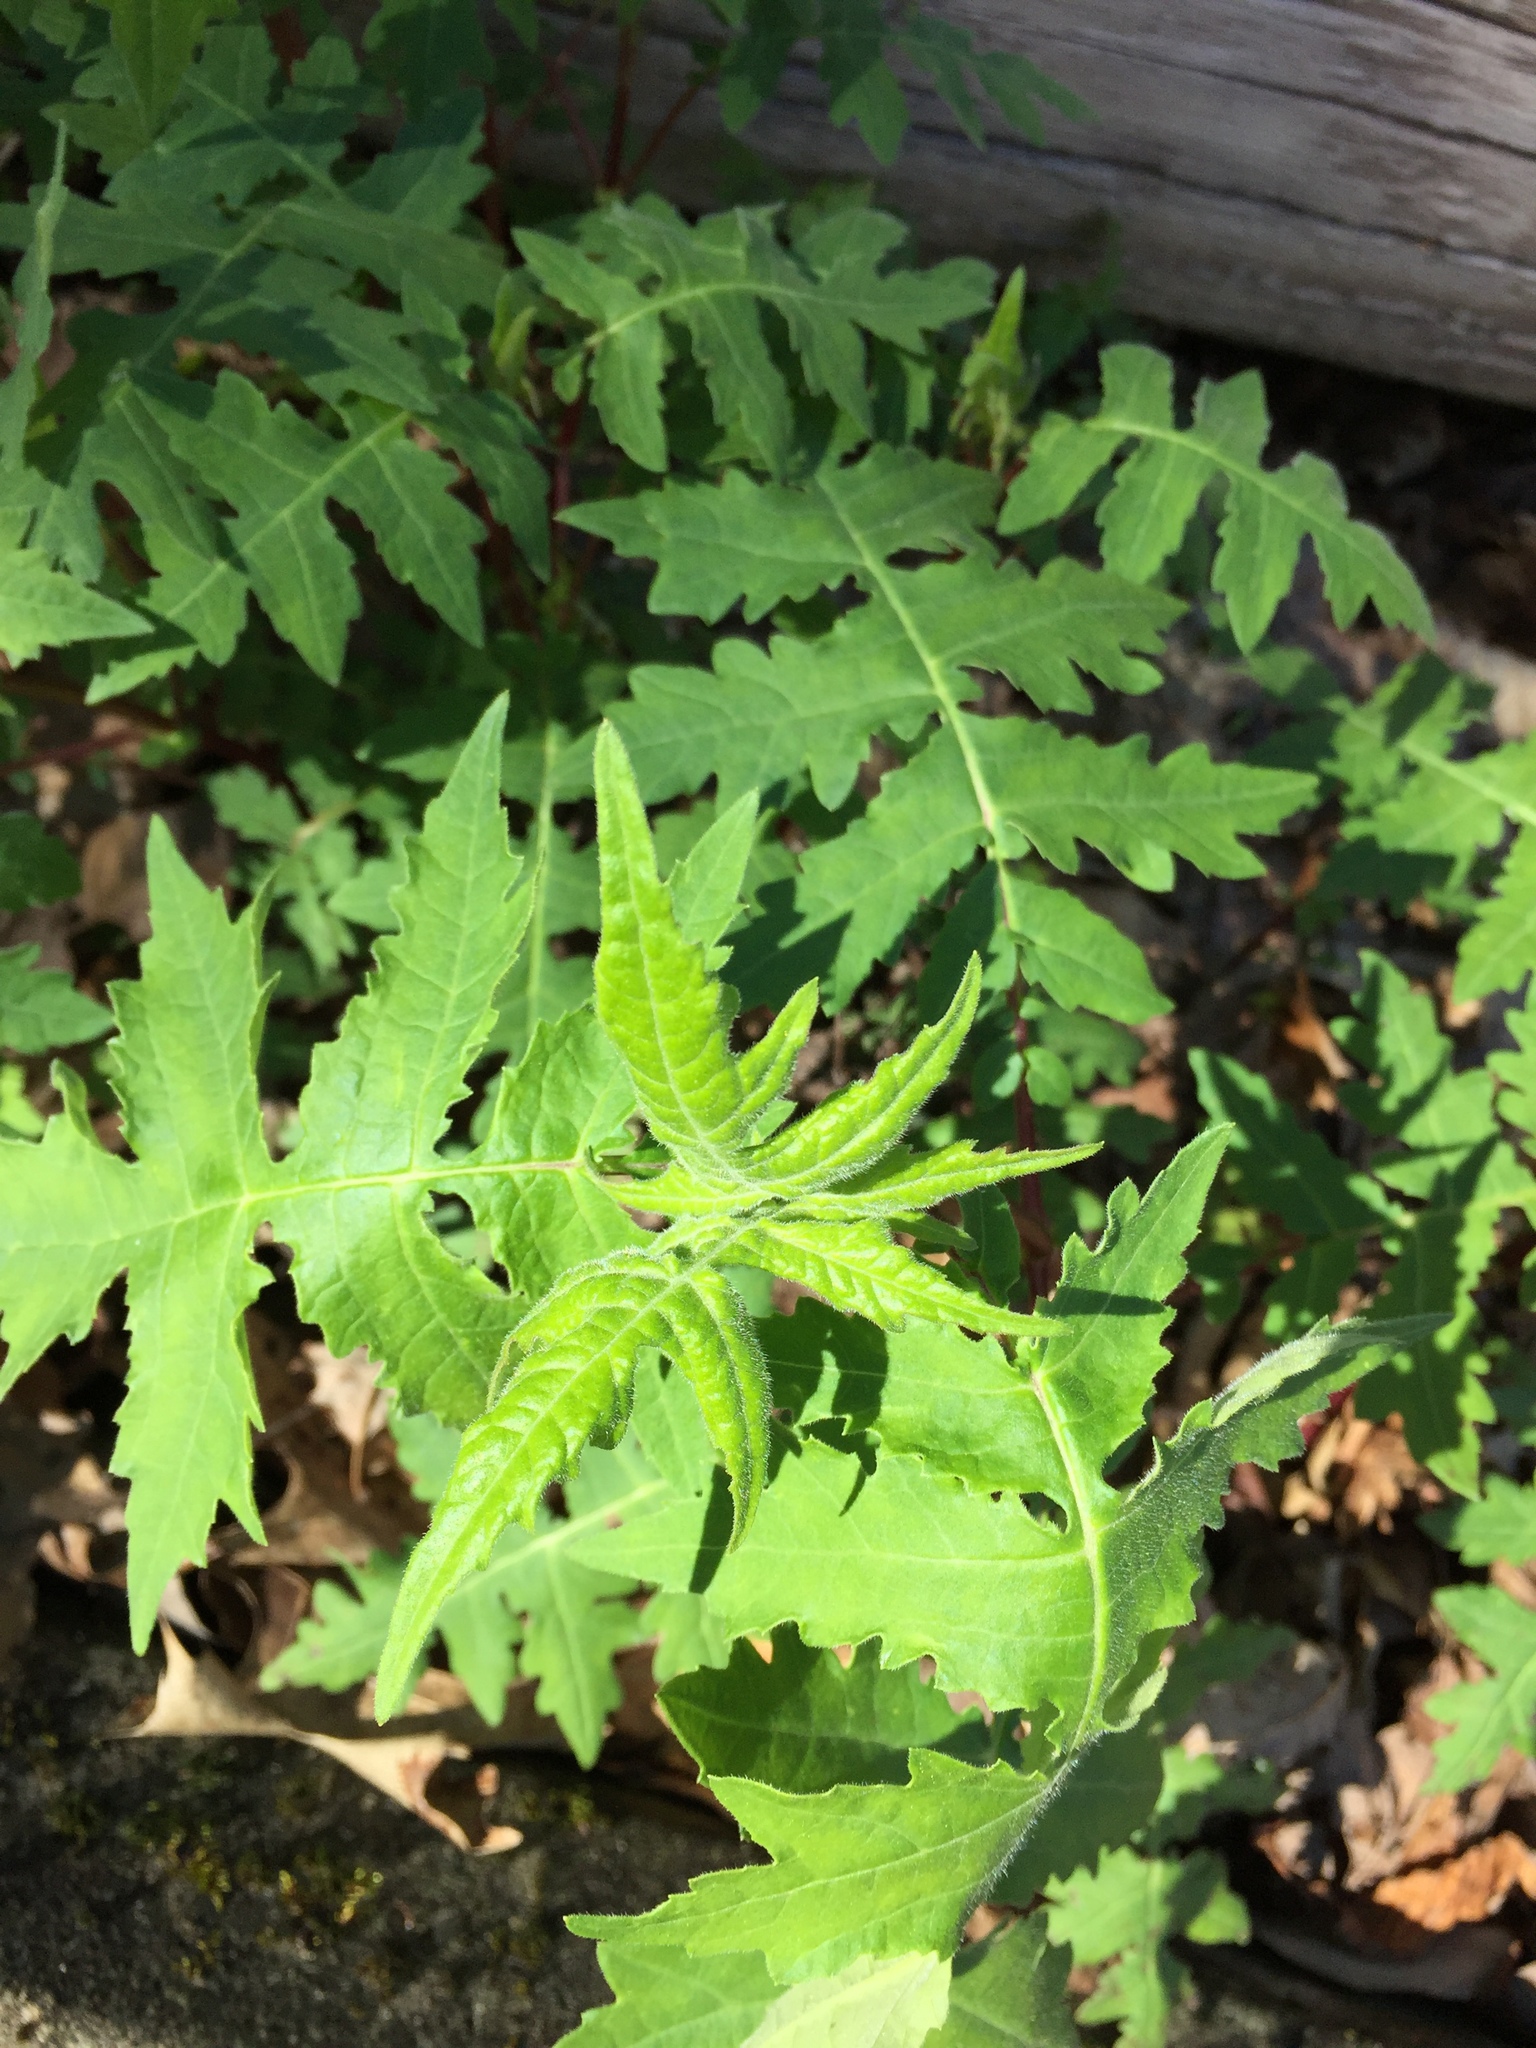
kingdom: Plantae
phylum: Tracheophyta
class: Magnoliopsida
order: Asterales
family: Asteraceae
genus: Polymnia
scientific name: Polymnia canadensis
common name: Pale-flowered leafcup
